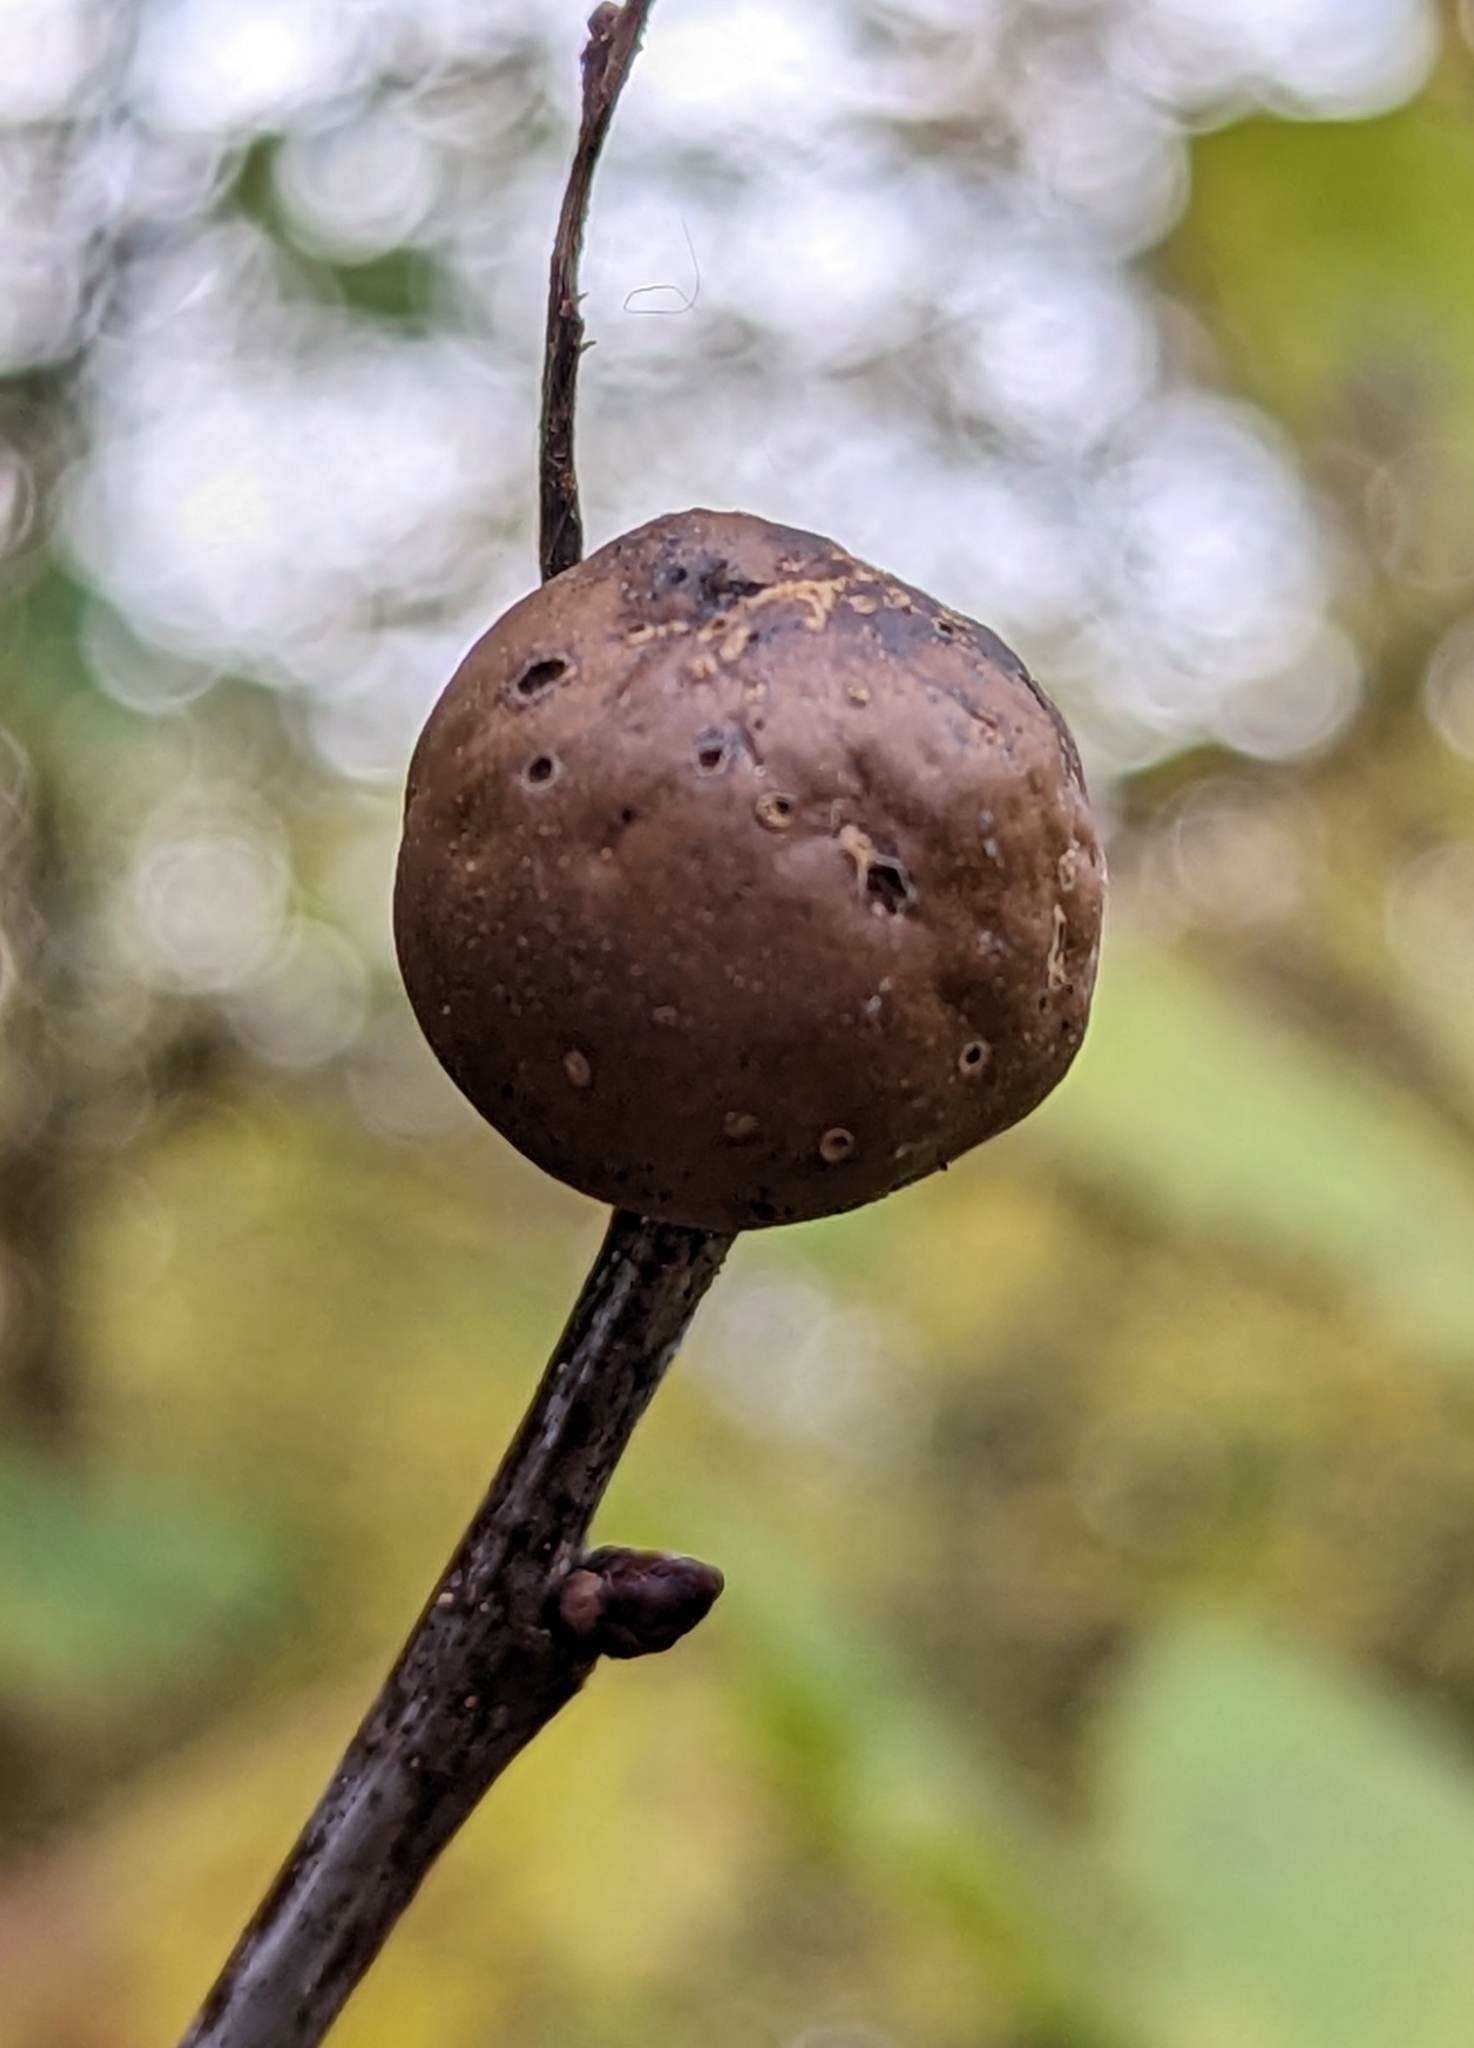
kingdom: Animalia
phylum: Arthropoda
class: Insecta
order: Hymenoptera
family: Cynipidae
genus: Andricus
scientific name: Andricus kollari
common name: Marble gall
